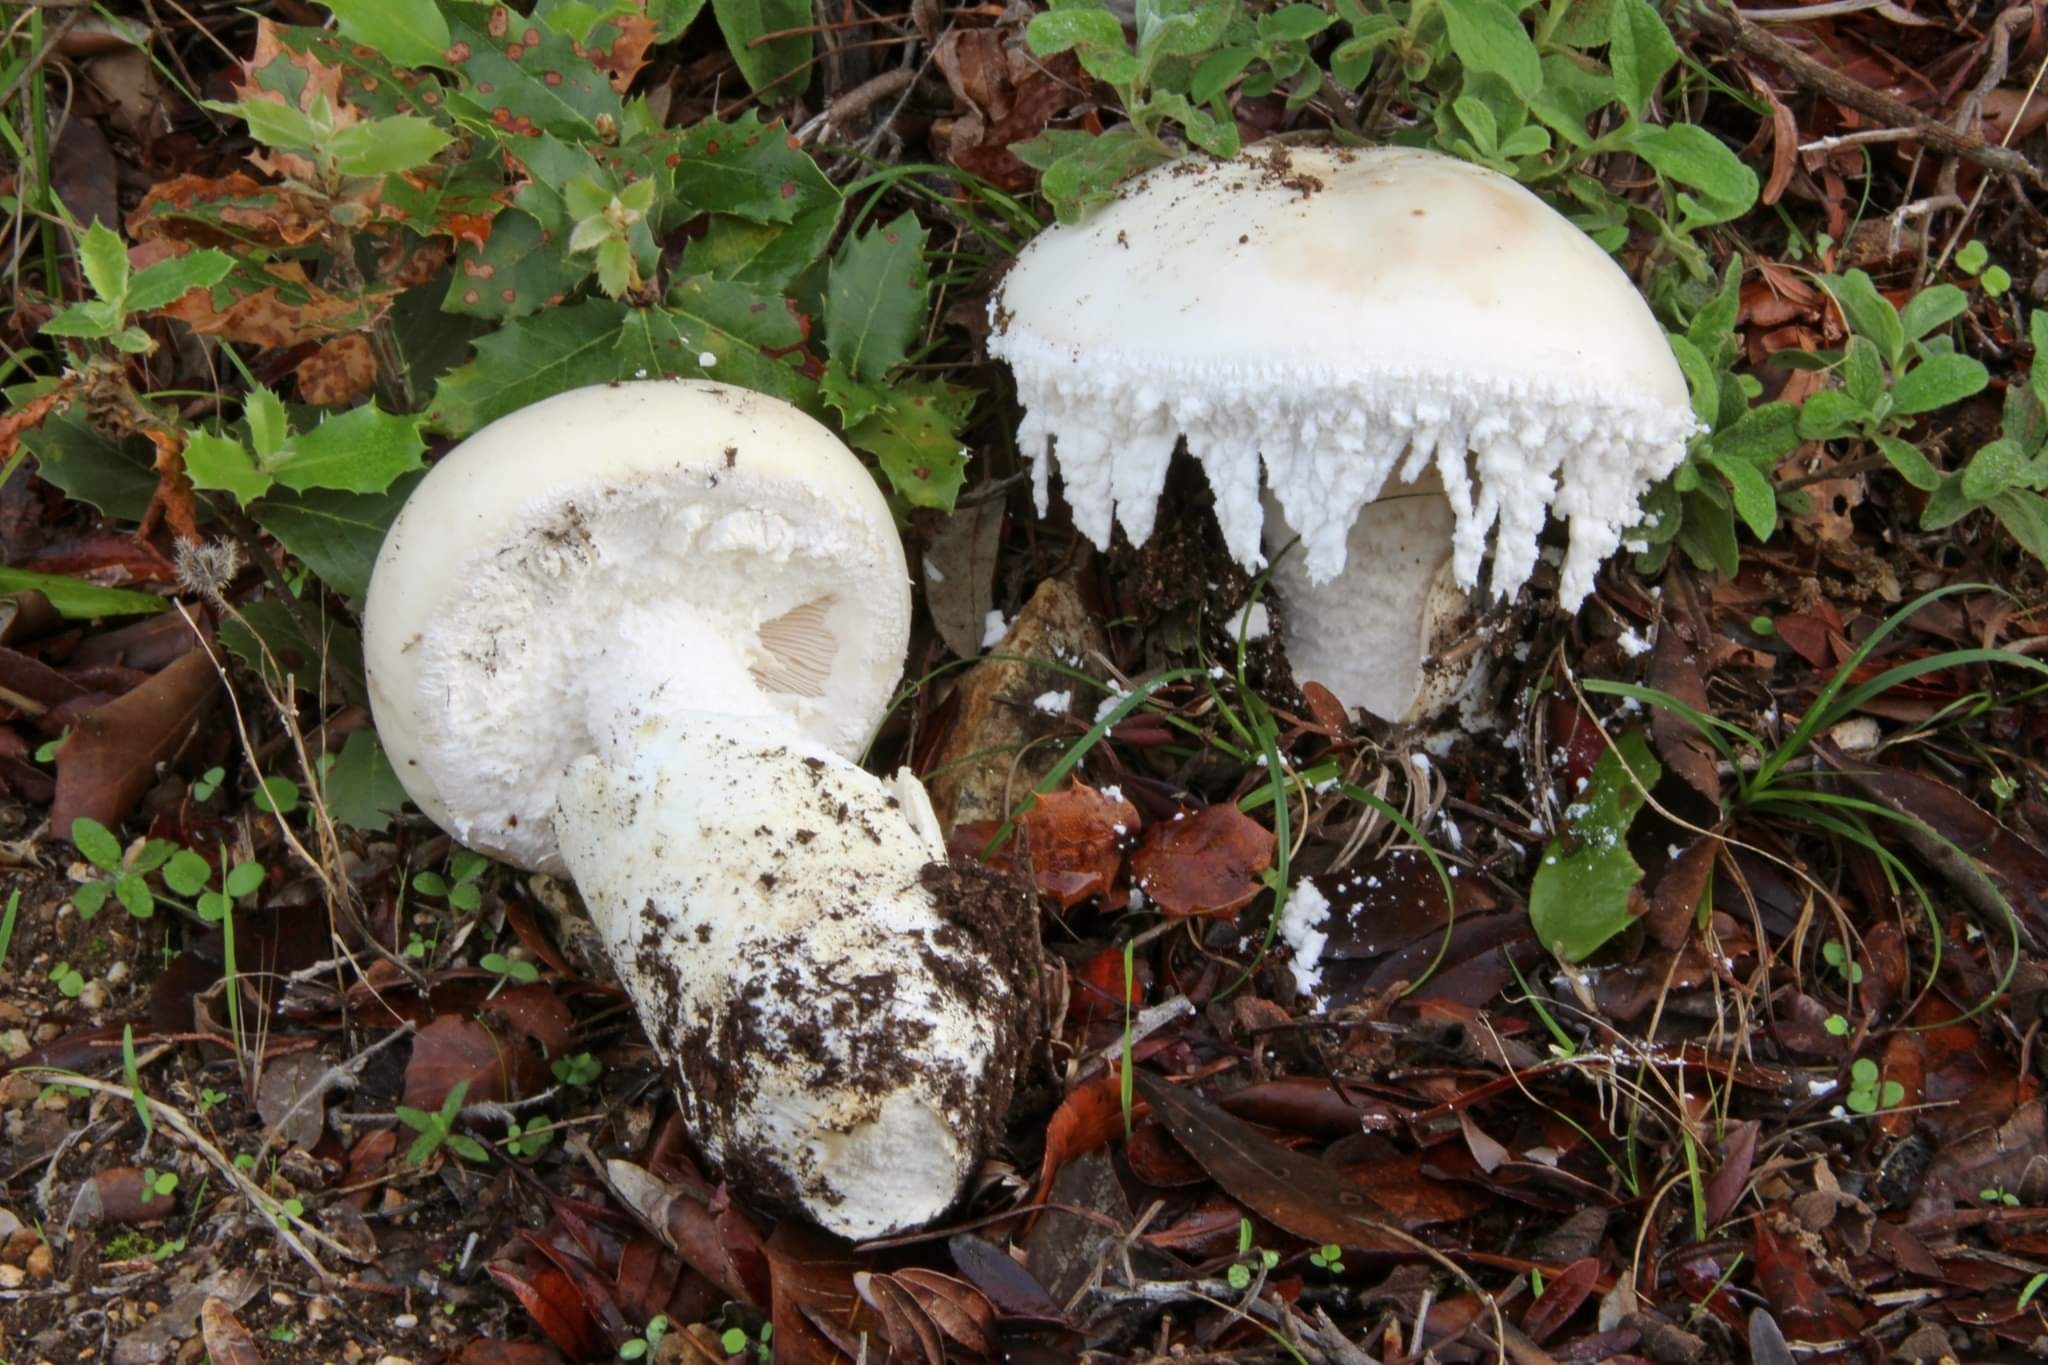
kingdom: Fungi
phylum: Basidiomycota
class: Agaricomycetes
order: Agaricales
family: Amanitaceae
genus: Amanita
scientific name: Amanita ovoidea
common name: Bearded amanita
